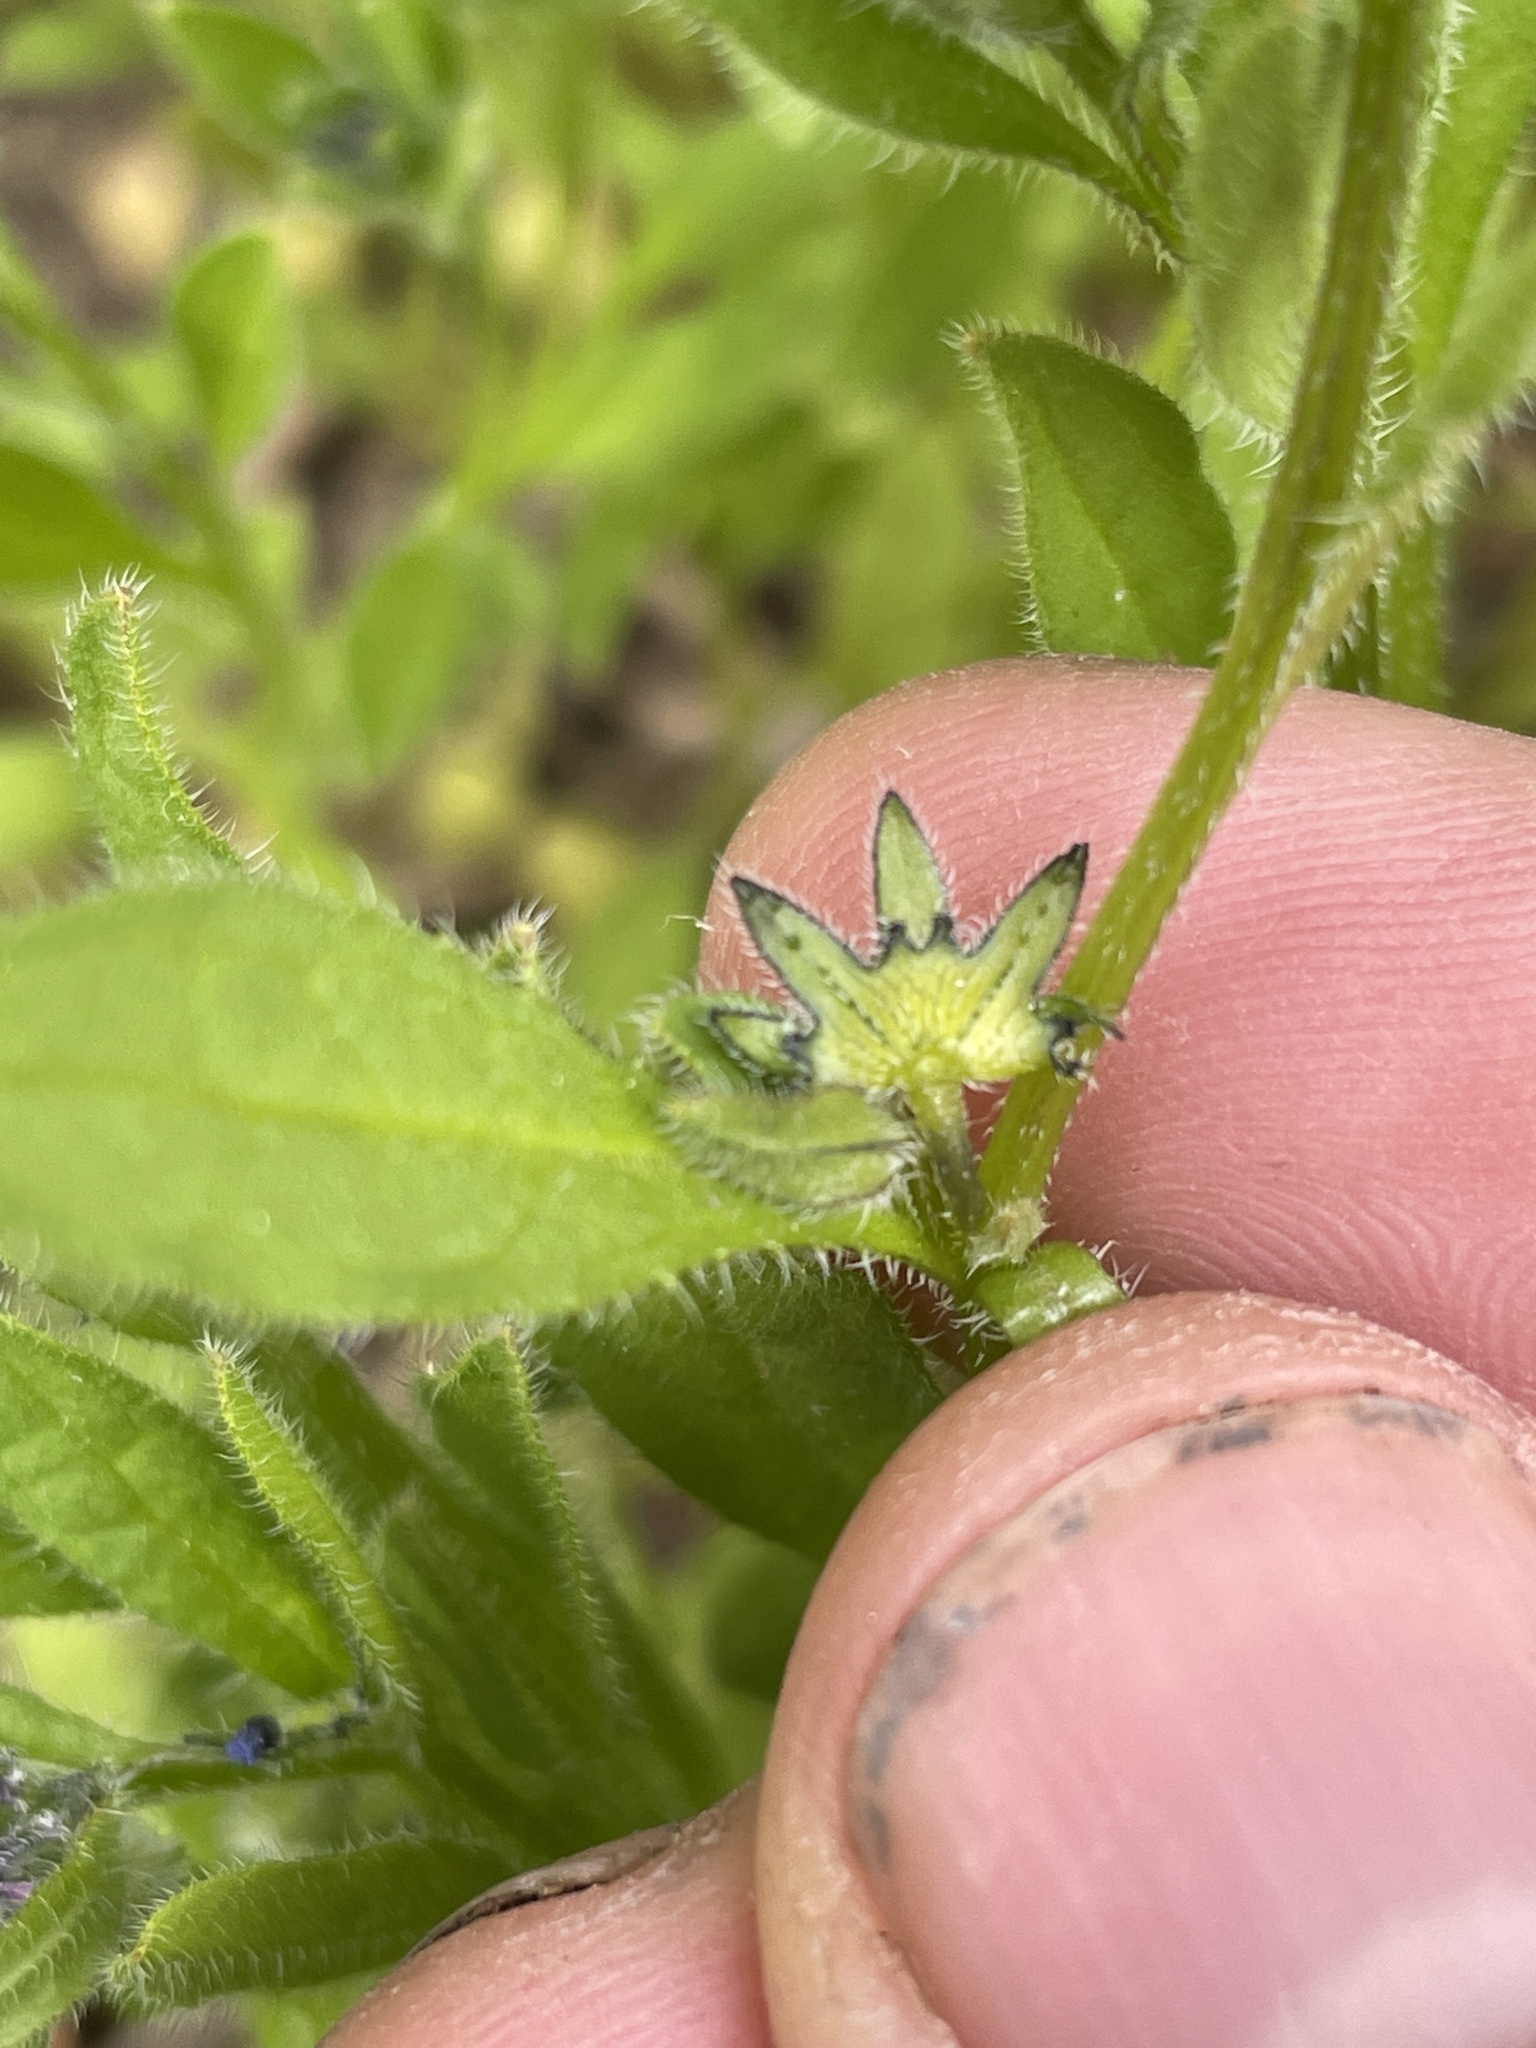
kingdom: Plantae
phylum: Tracheophyta
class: Magnoliopsida
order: Boraginales
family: Boraginaceae
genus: Asperugo
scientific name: Asperugo procumbens
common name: Madwort
